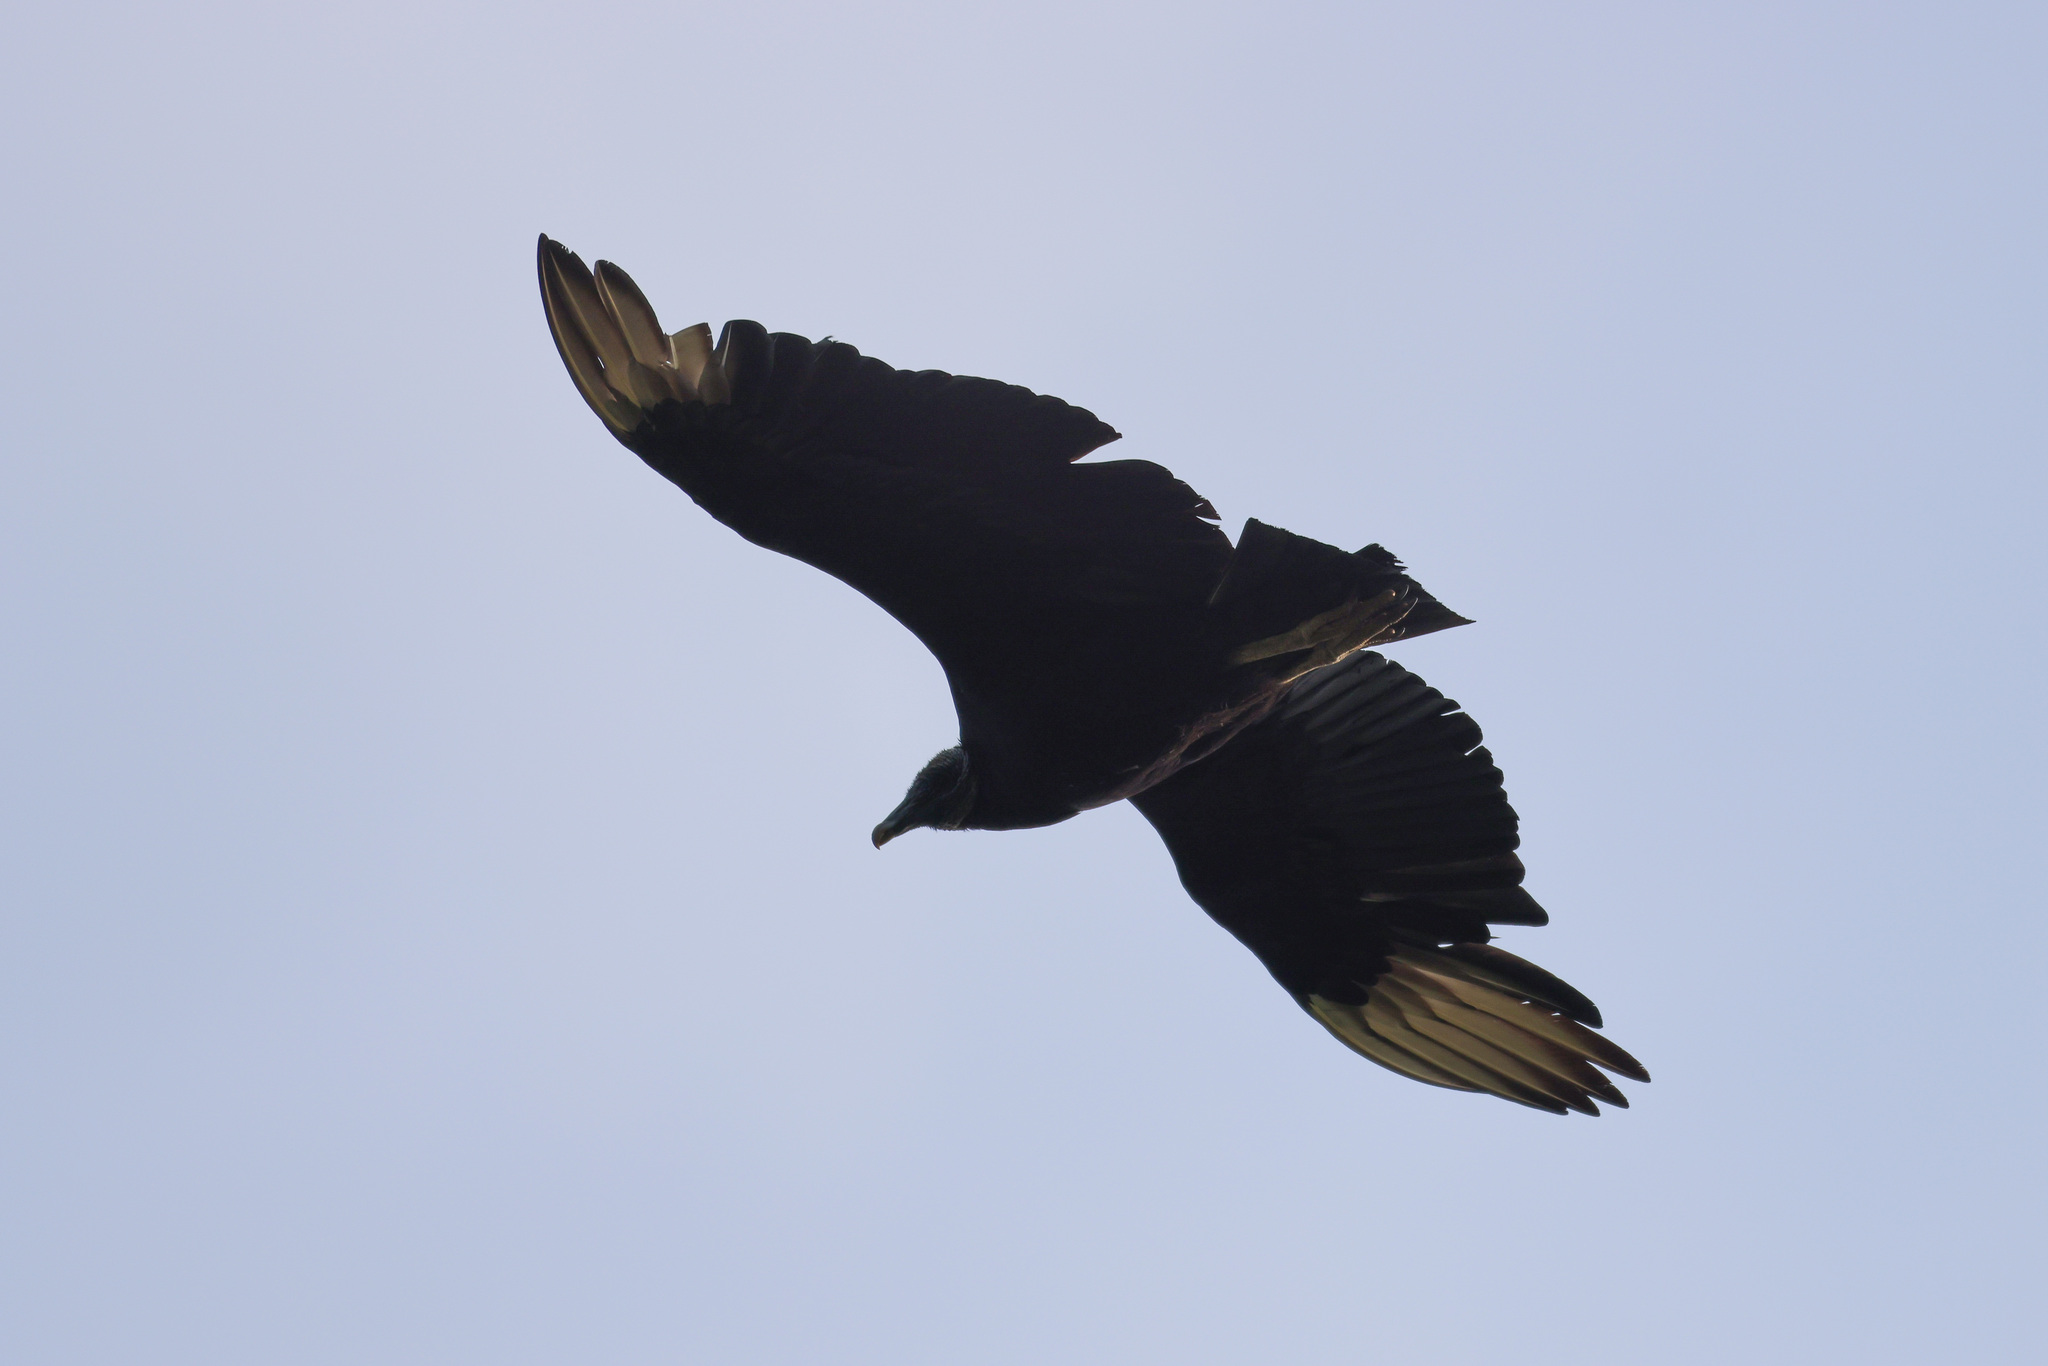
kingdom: Animalia
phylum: Chordata
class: Aves
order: Accipitriformes
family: Cathartidae
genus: Coragyps
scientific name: Coragyps atratus
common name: Black vulture
